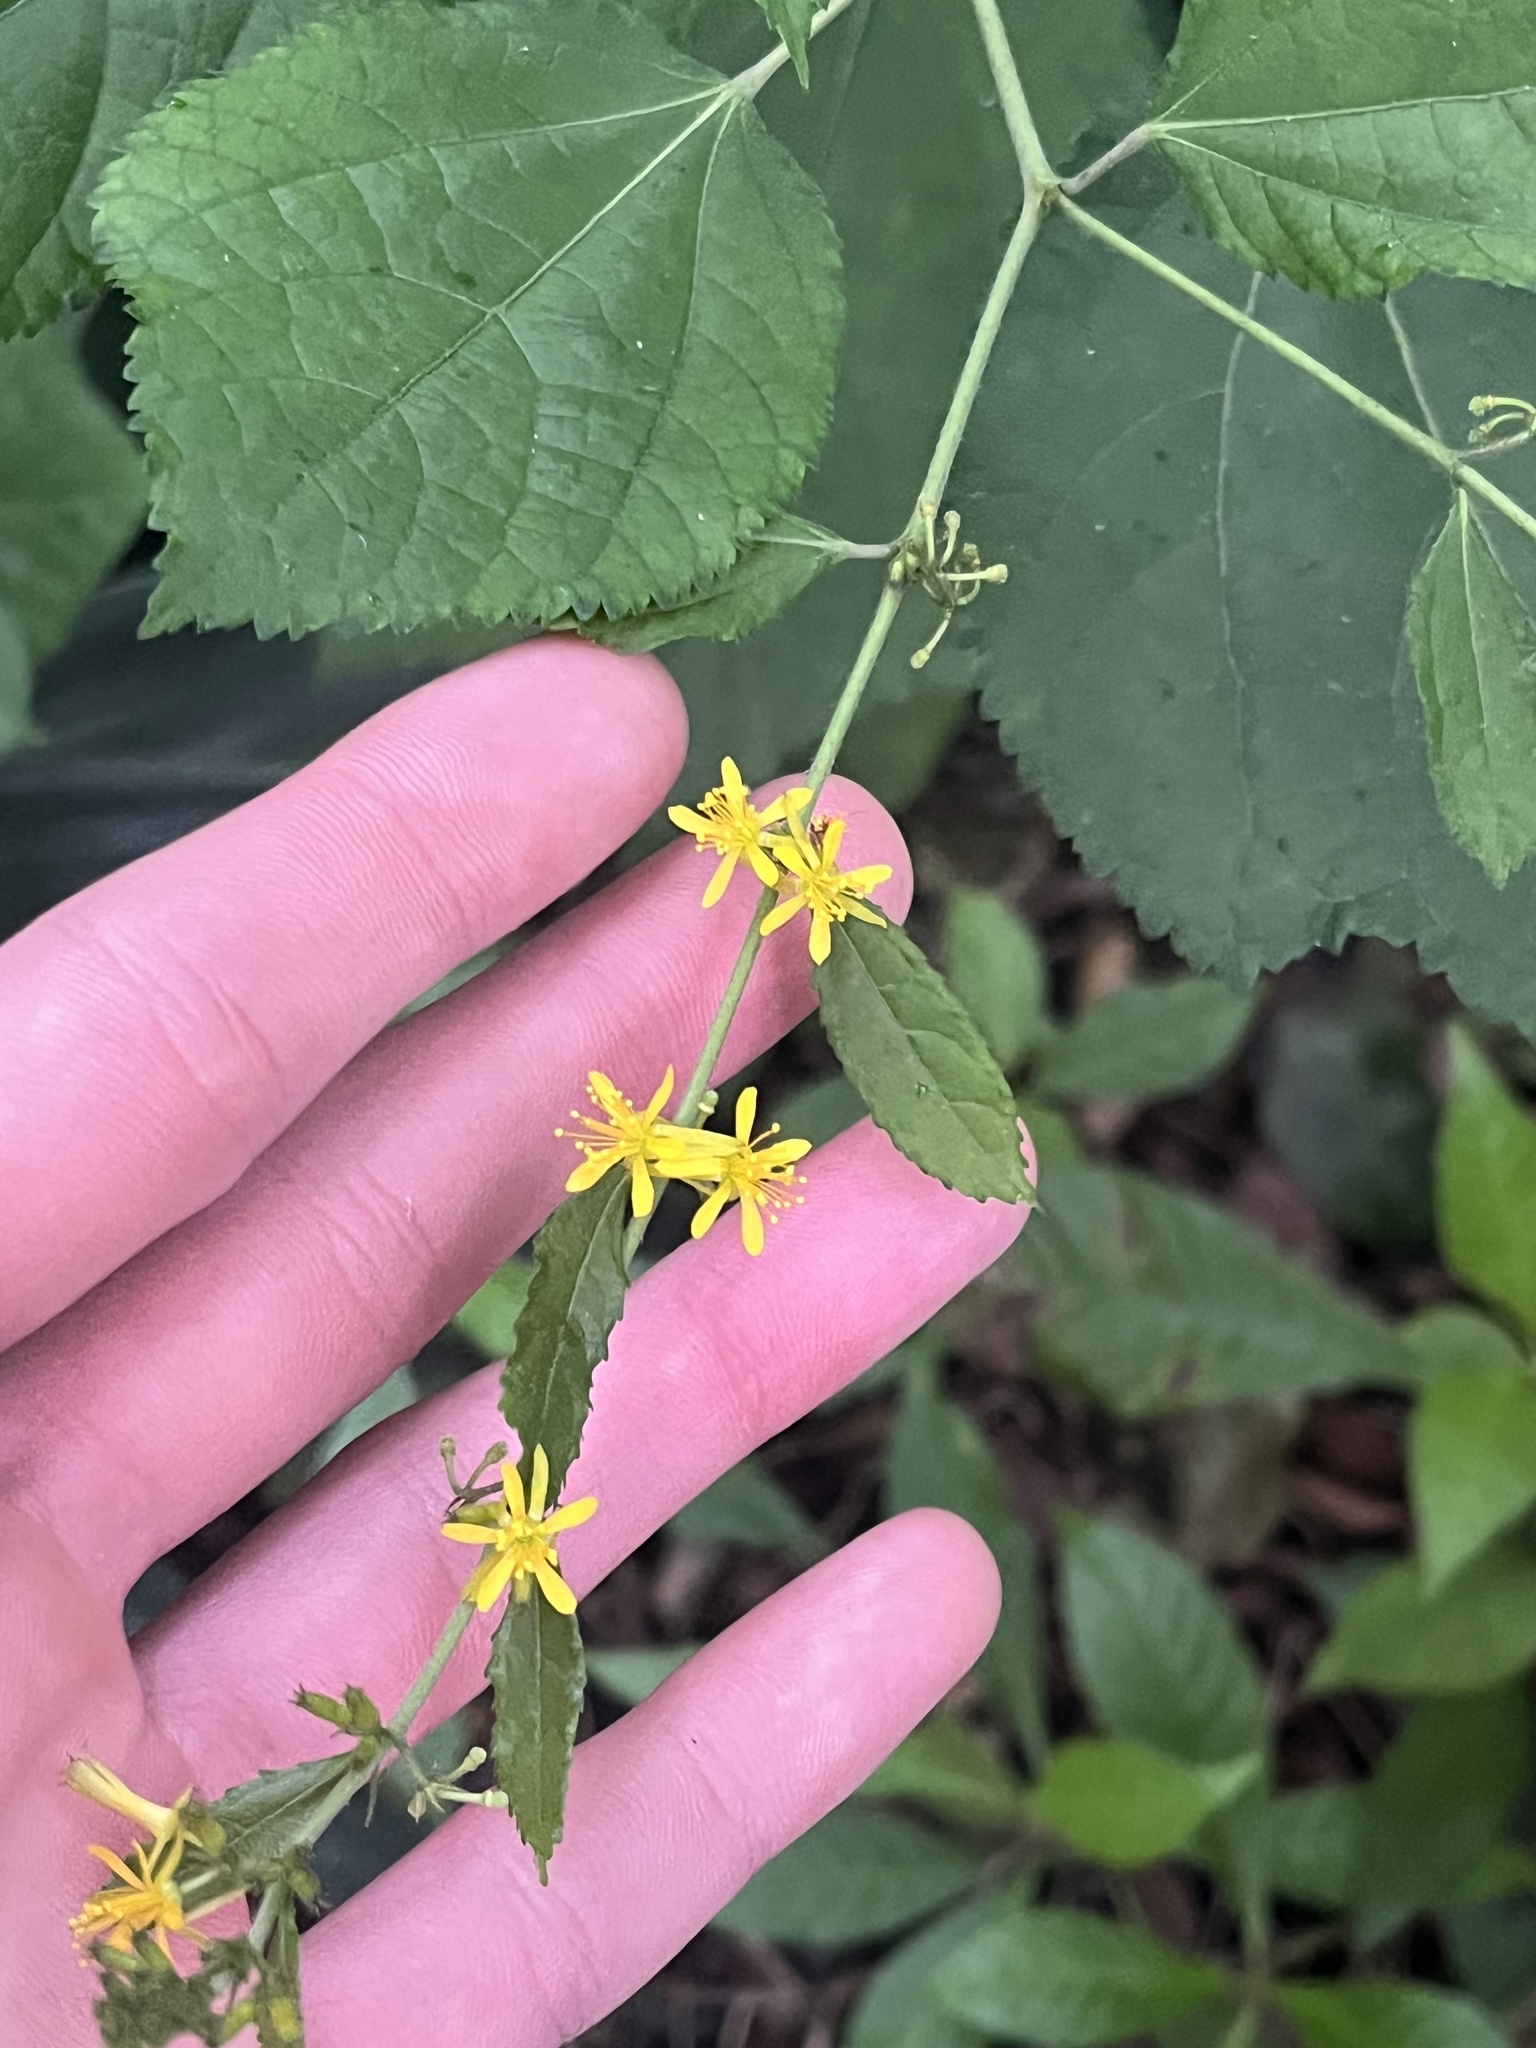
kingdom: Plantae
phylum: Tracheophyta
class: Magnoliopsida
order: Malvales
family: Malvaceae
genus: Triumfetta
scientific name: Triumfetta semitriloba
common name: Sacramento burbark
